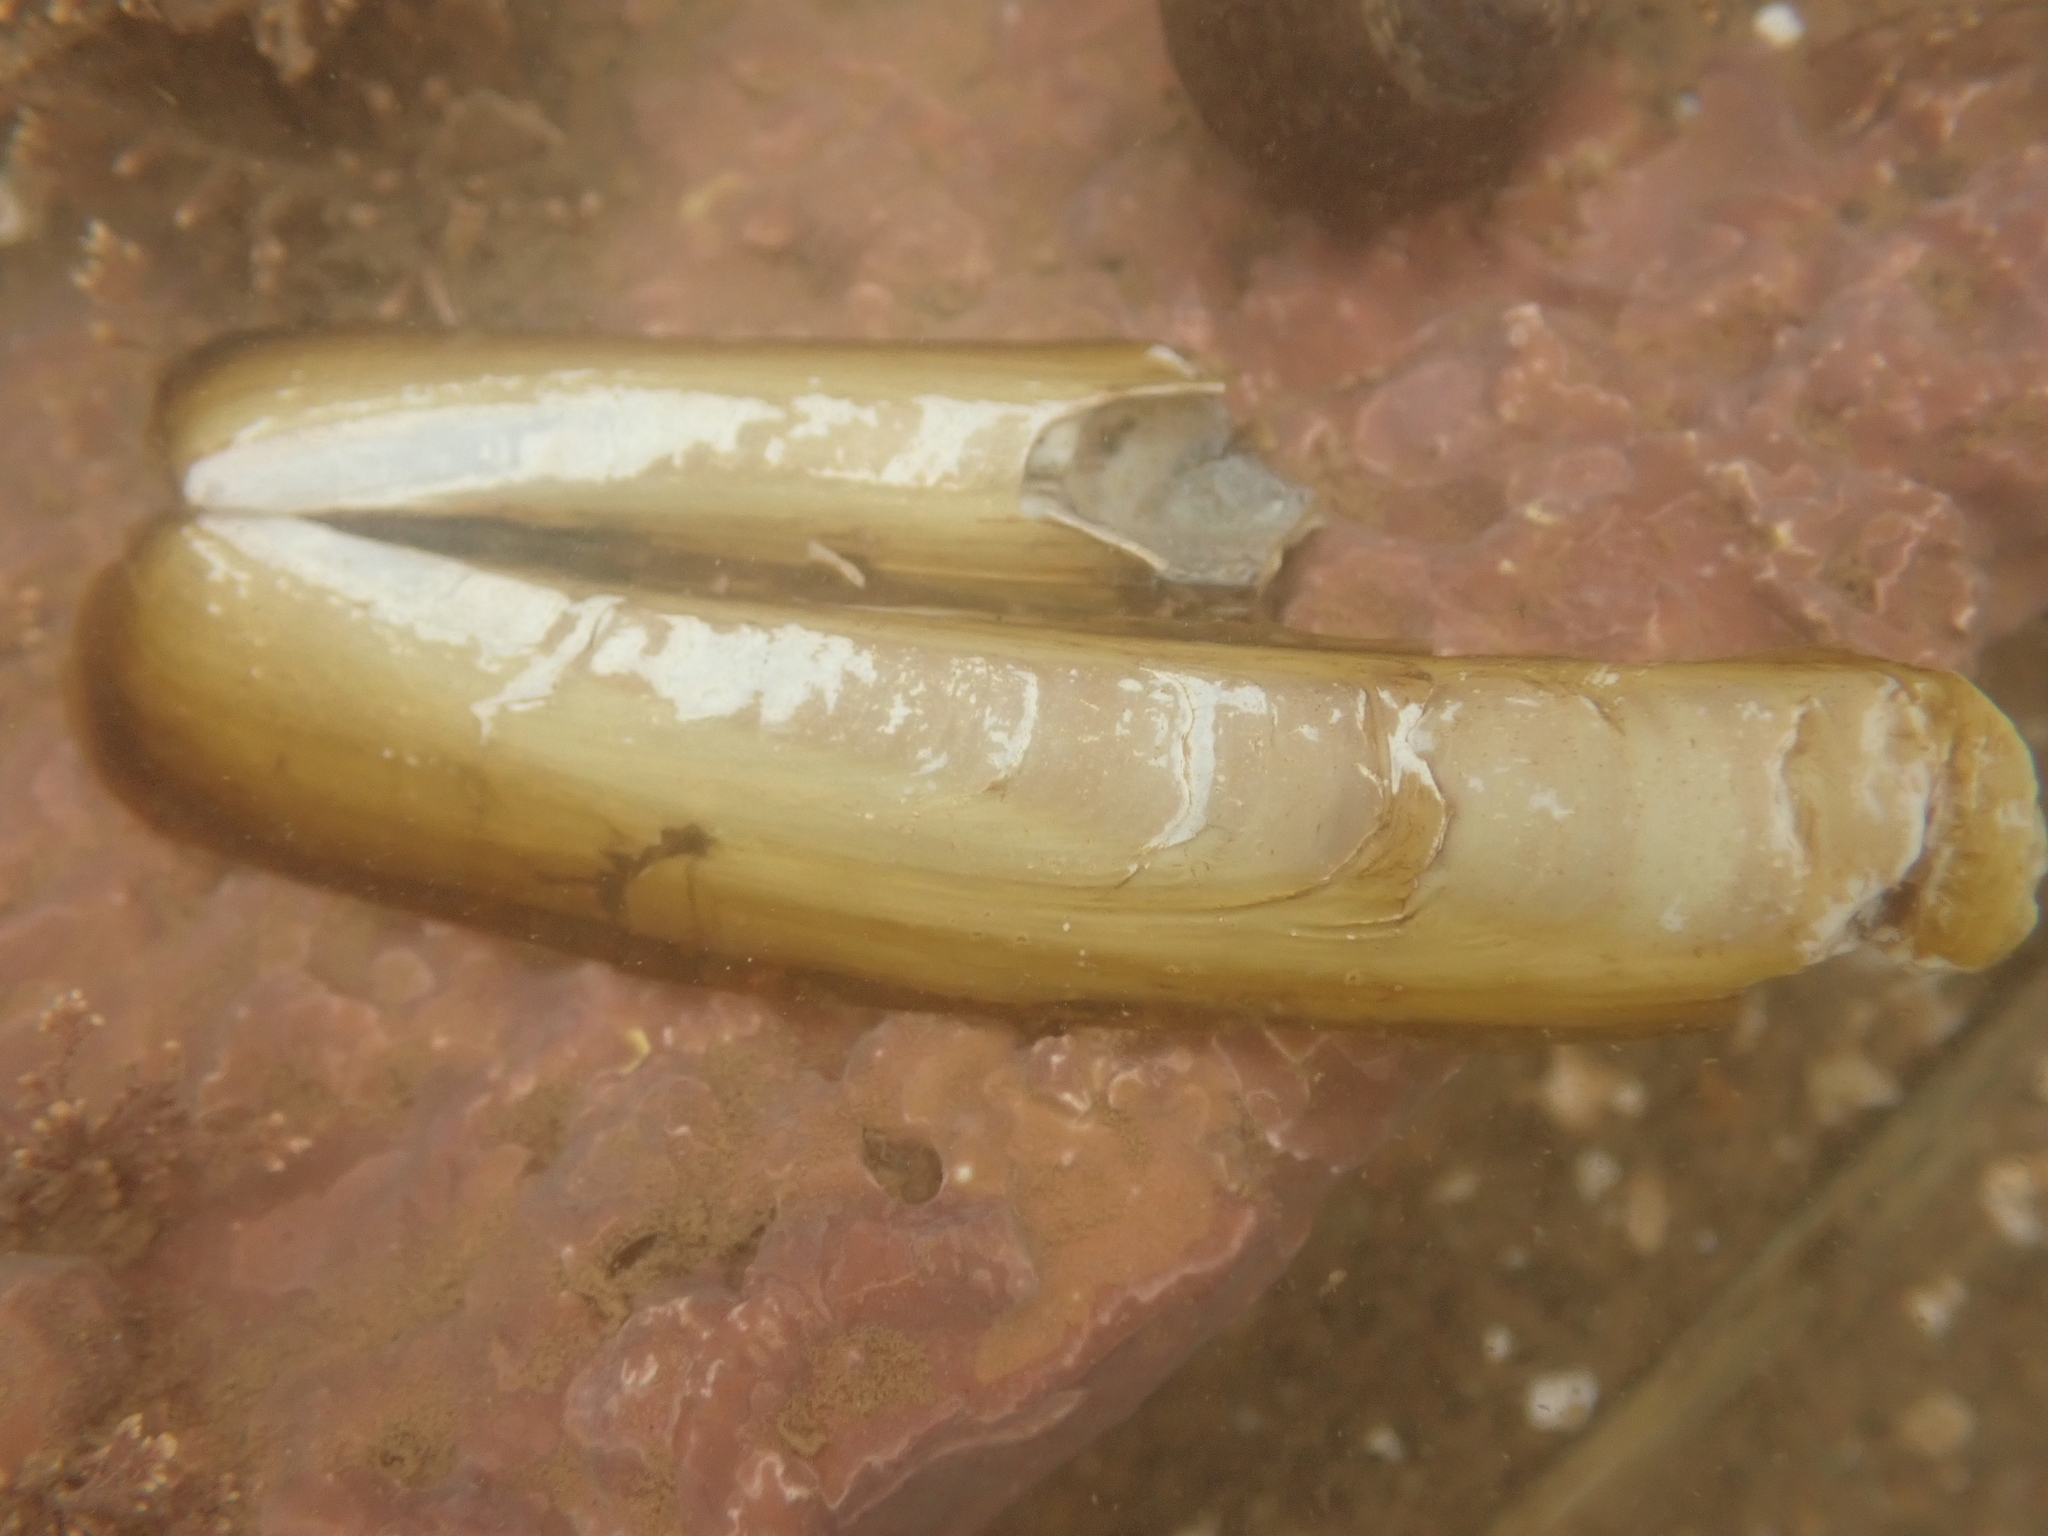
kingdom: Animalia
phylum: Mollusca
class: Bivalvia
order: Adapedonta
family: Pharidae
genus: Ensis
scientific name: Ensis leei
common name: American jack knife clam
